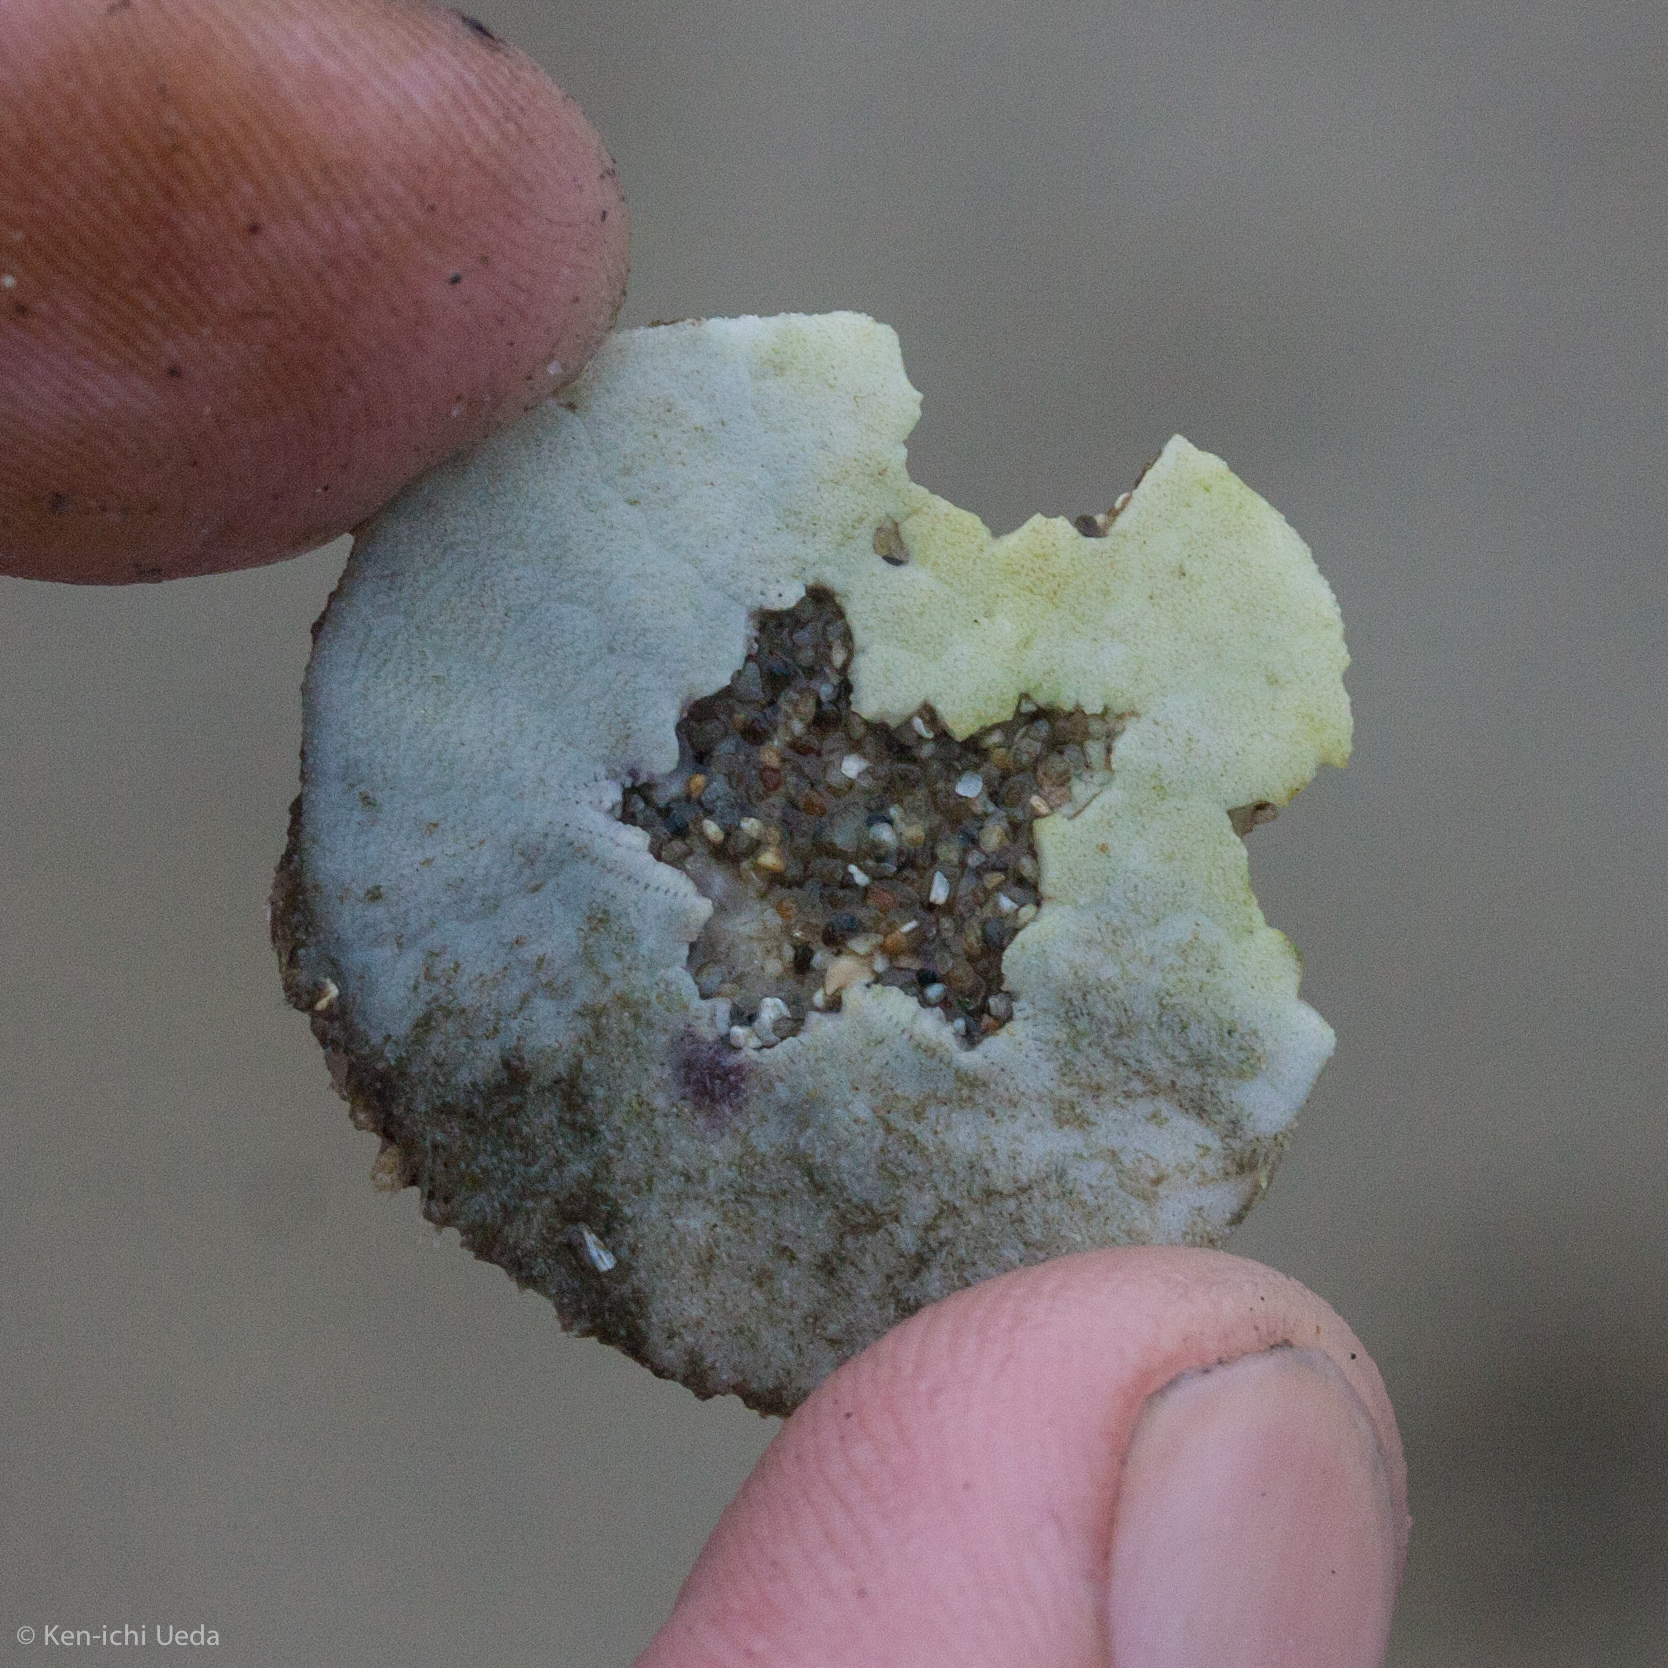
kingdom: Animalia
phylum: Echinodermata
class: Echinoidea
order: Echinolampadacea
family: Dendrasteridae
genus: Dendraster
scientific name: Dendraster excentricus
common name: Eccentric sand dollar sea urchin
